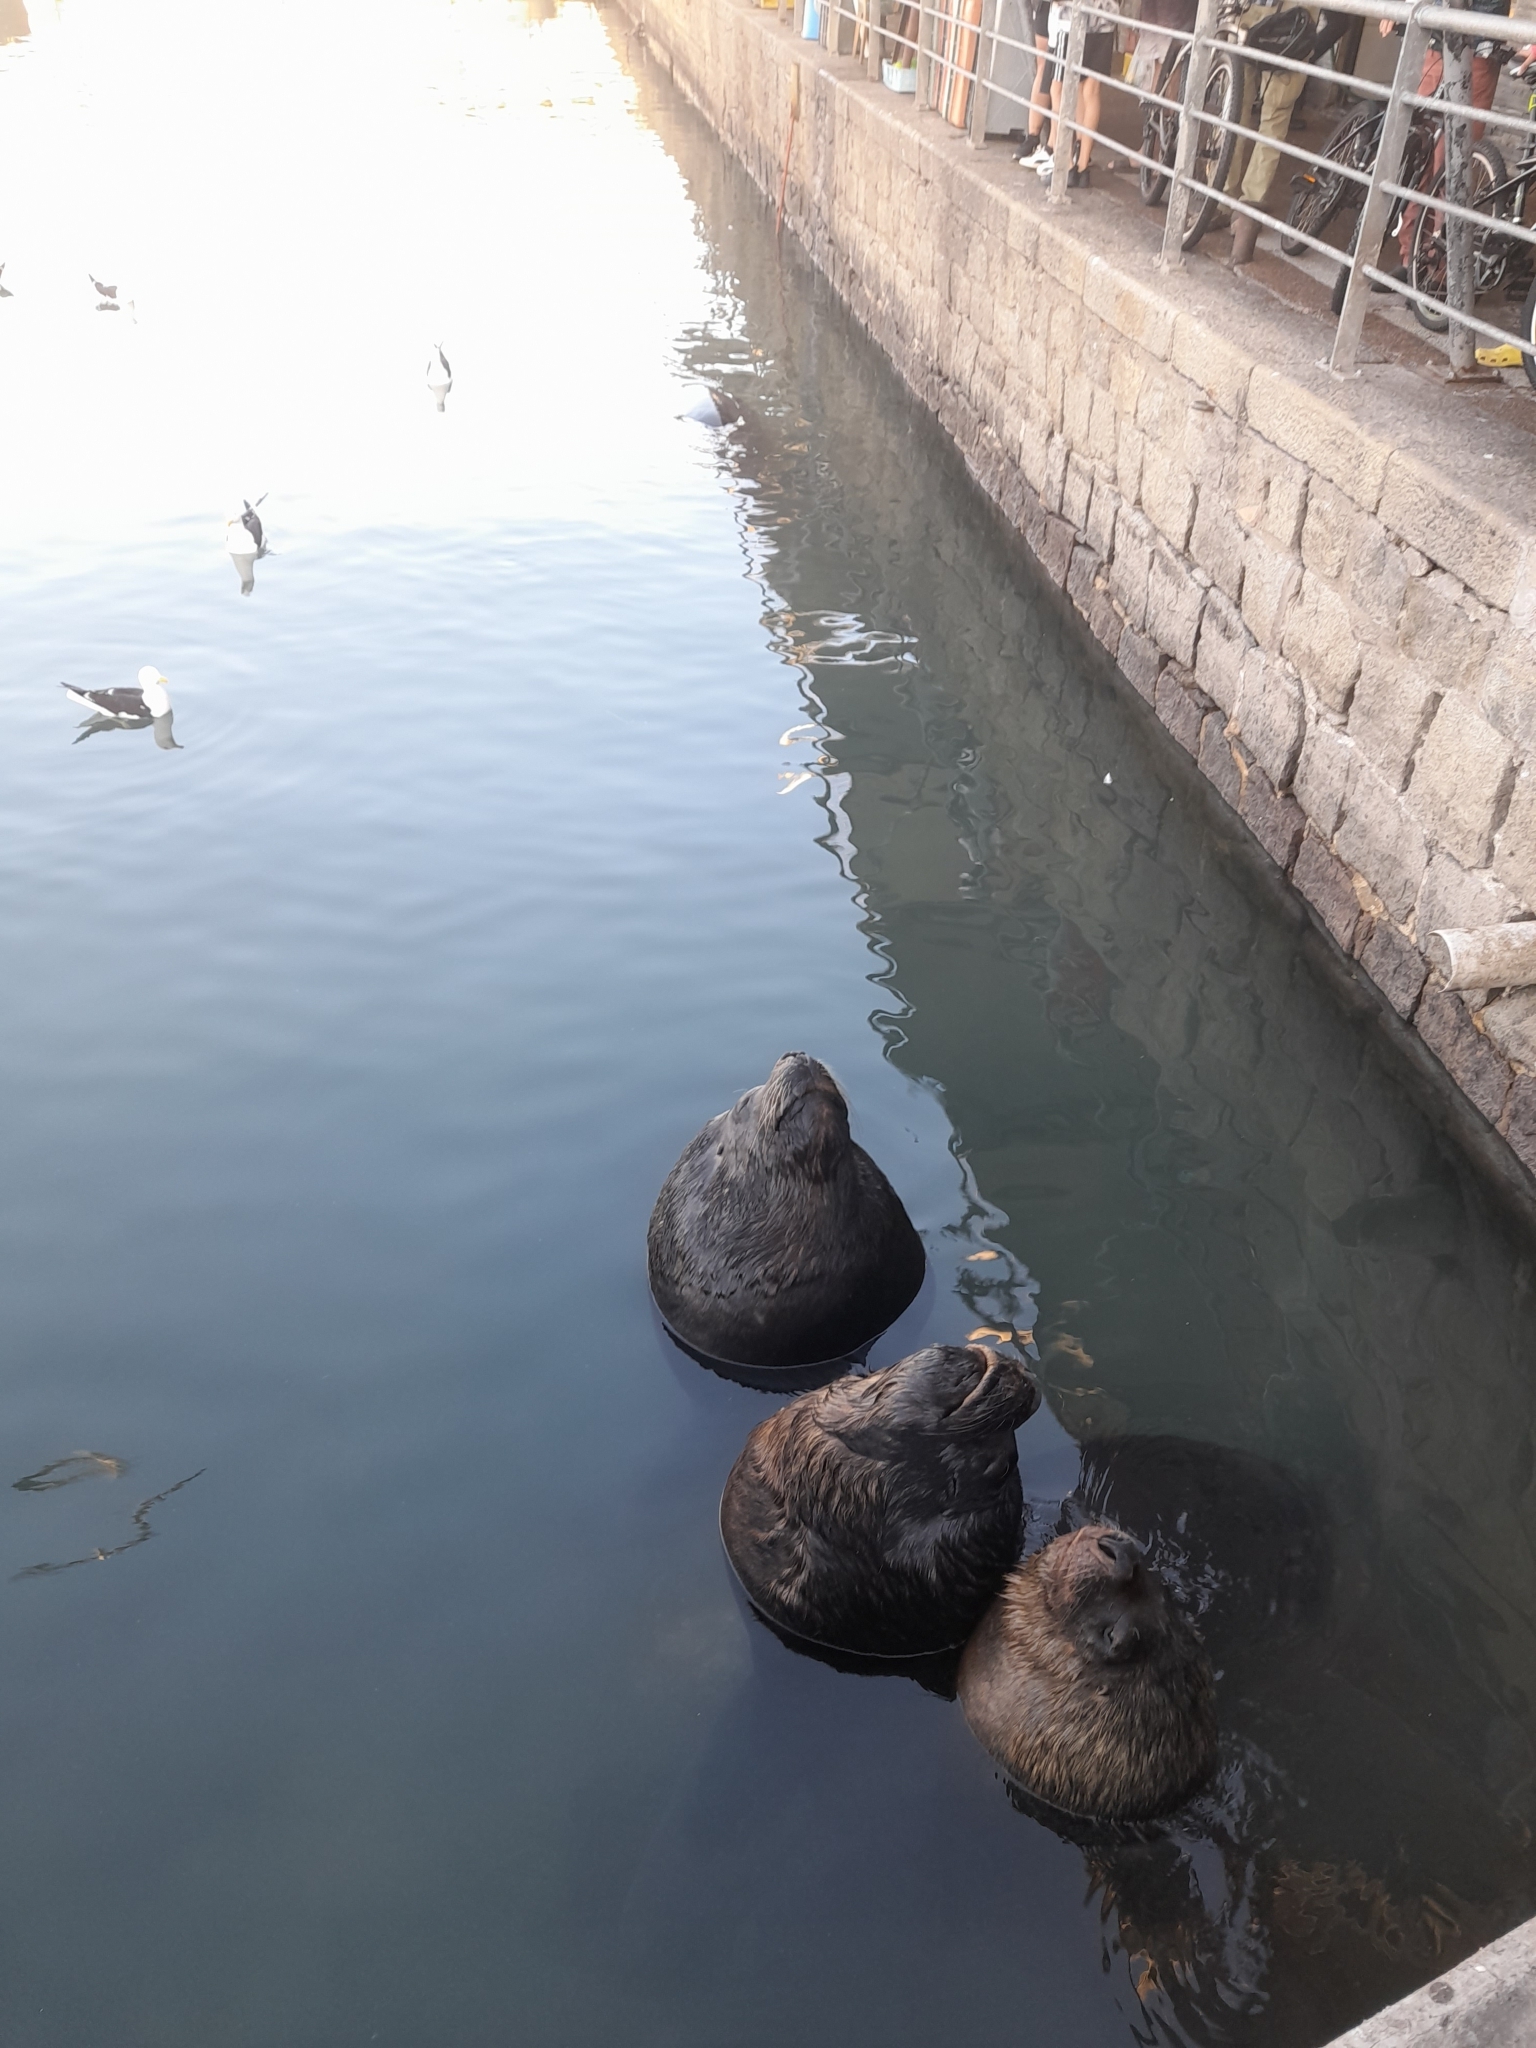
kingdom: Animalia
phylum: Chordata
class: Mammalia
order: Carnivora
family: Otariidae
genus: Otaria
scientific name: Otaria byronia
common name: South american sea lion
